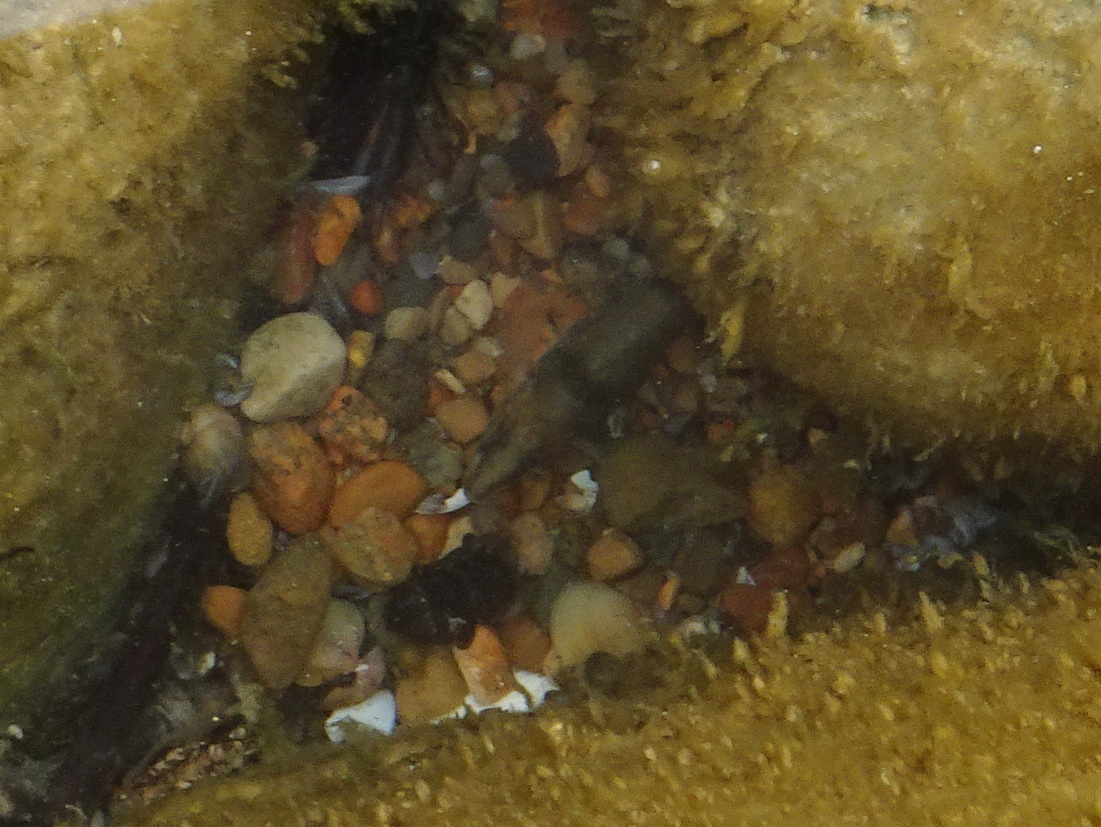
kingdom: Animalia
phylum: Chordata
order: Perciformes
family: Percidae
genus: Etheostoma
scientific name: Etheostoma caeruleum
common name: Rainbow darter
